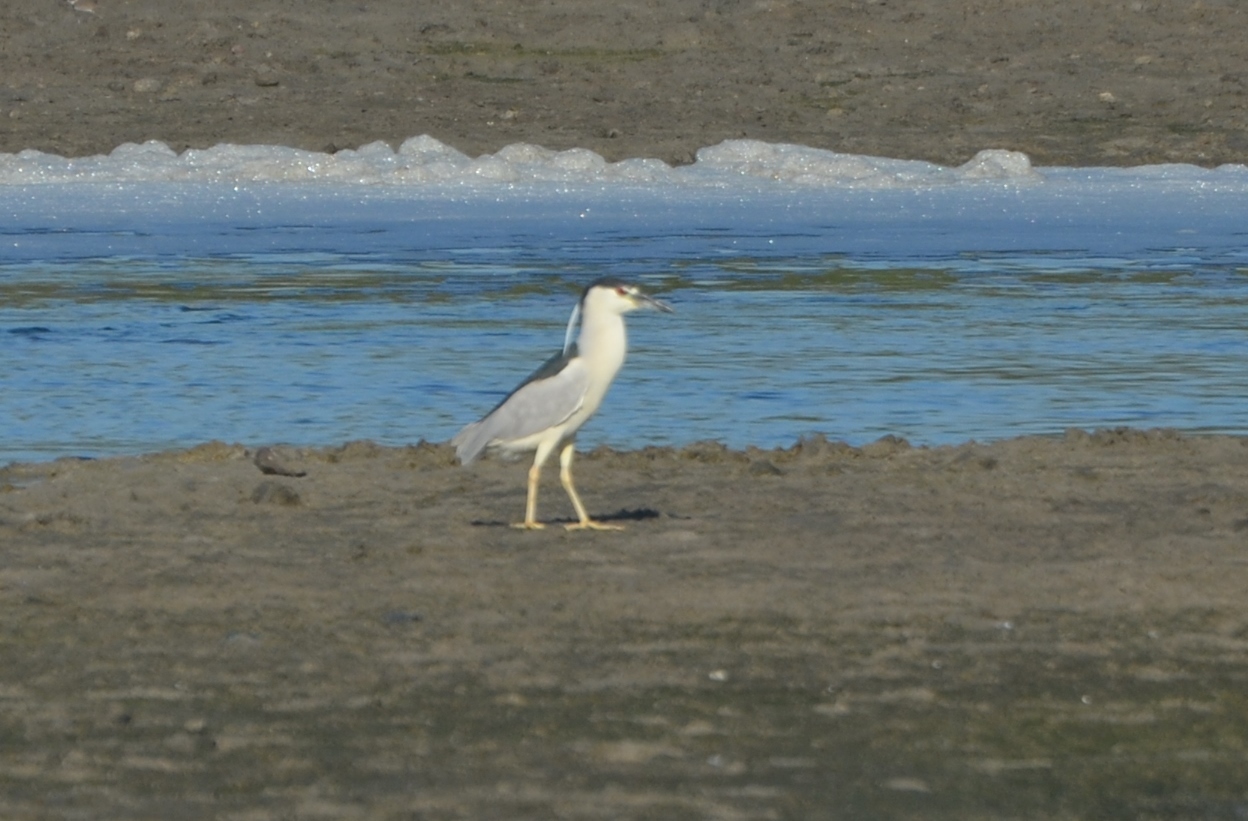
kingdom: Animalia
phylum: Chordata
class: Aves
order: Pelecaniformes
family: Ardeidae
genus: Nycticorax
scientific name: Nycticorax nycticorax
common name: Black-crowned night heron
